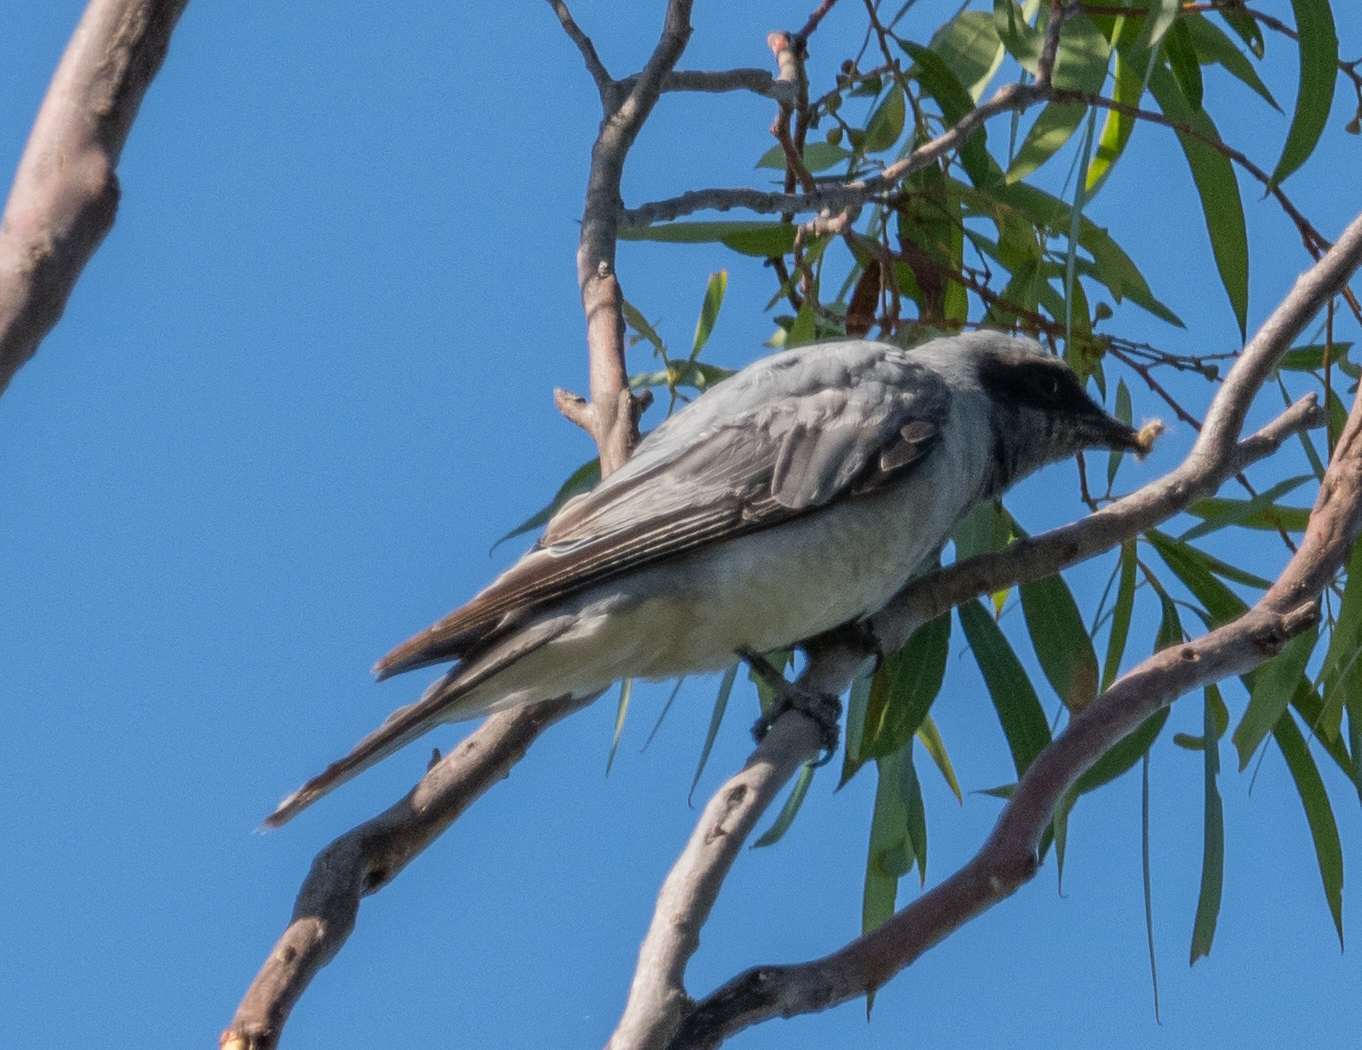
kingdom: Animalia
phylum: Chordata
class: Aves
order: Passeriformes
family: Campephagidae
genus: Coracina
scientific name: Coracina novaehollandiae
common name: Black-faced cuckooshrike
